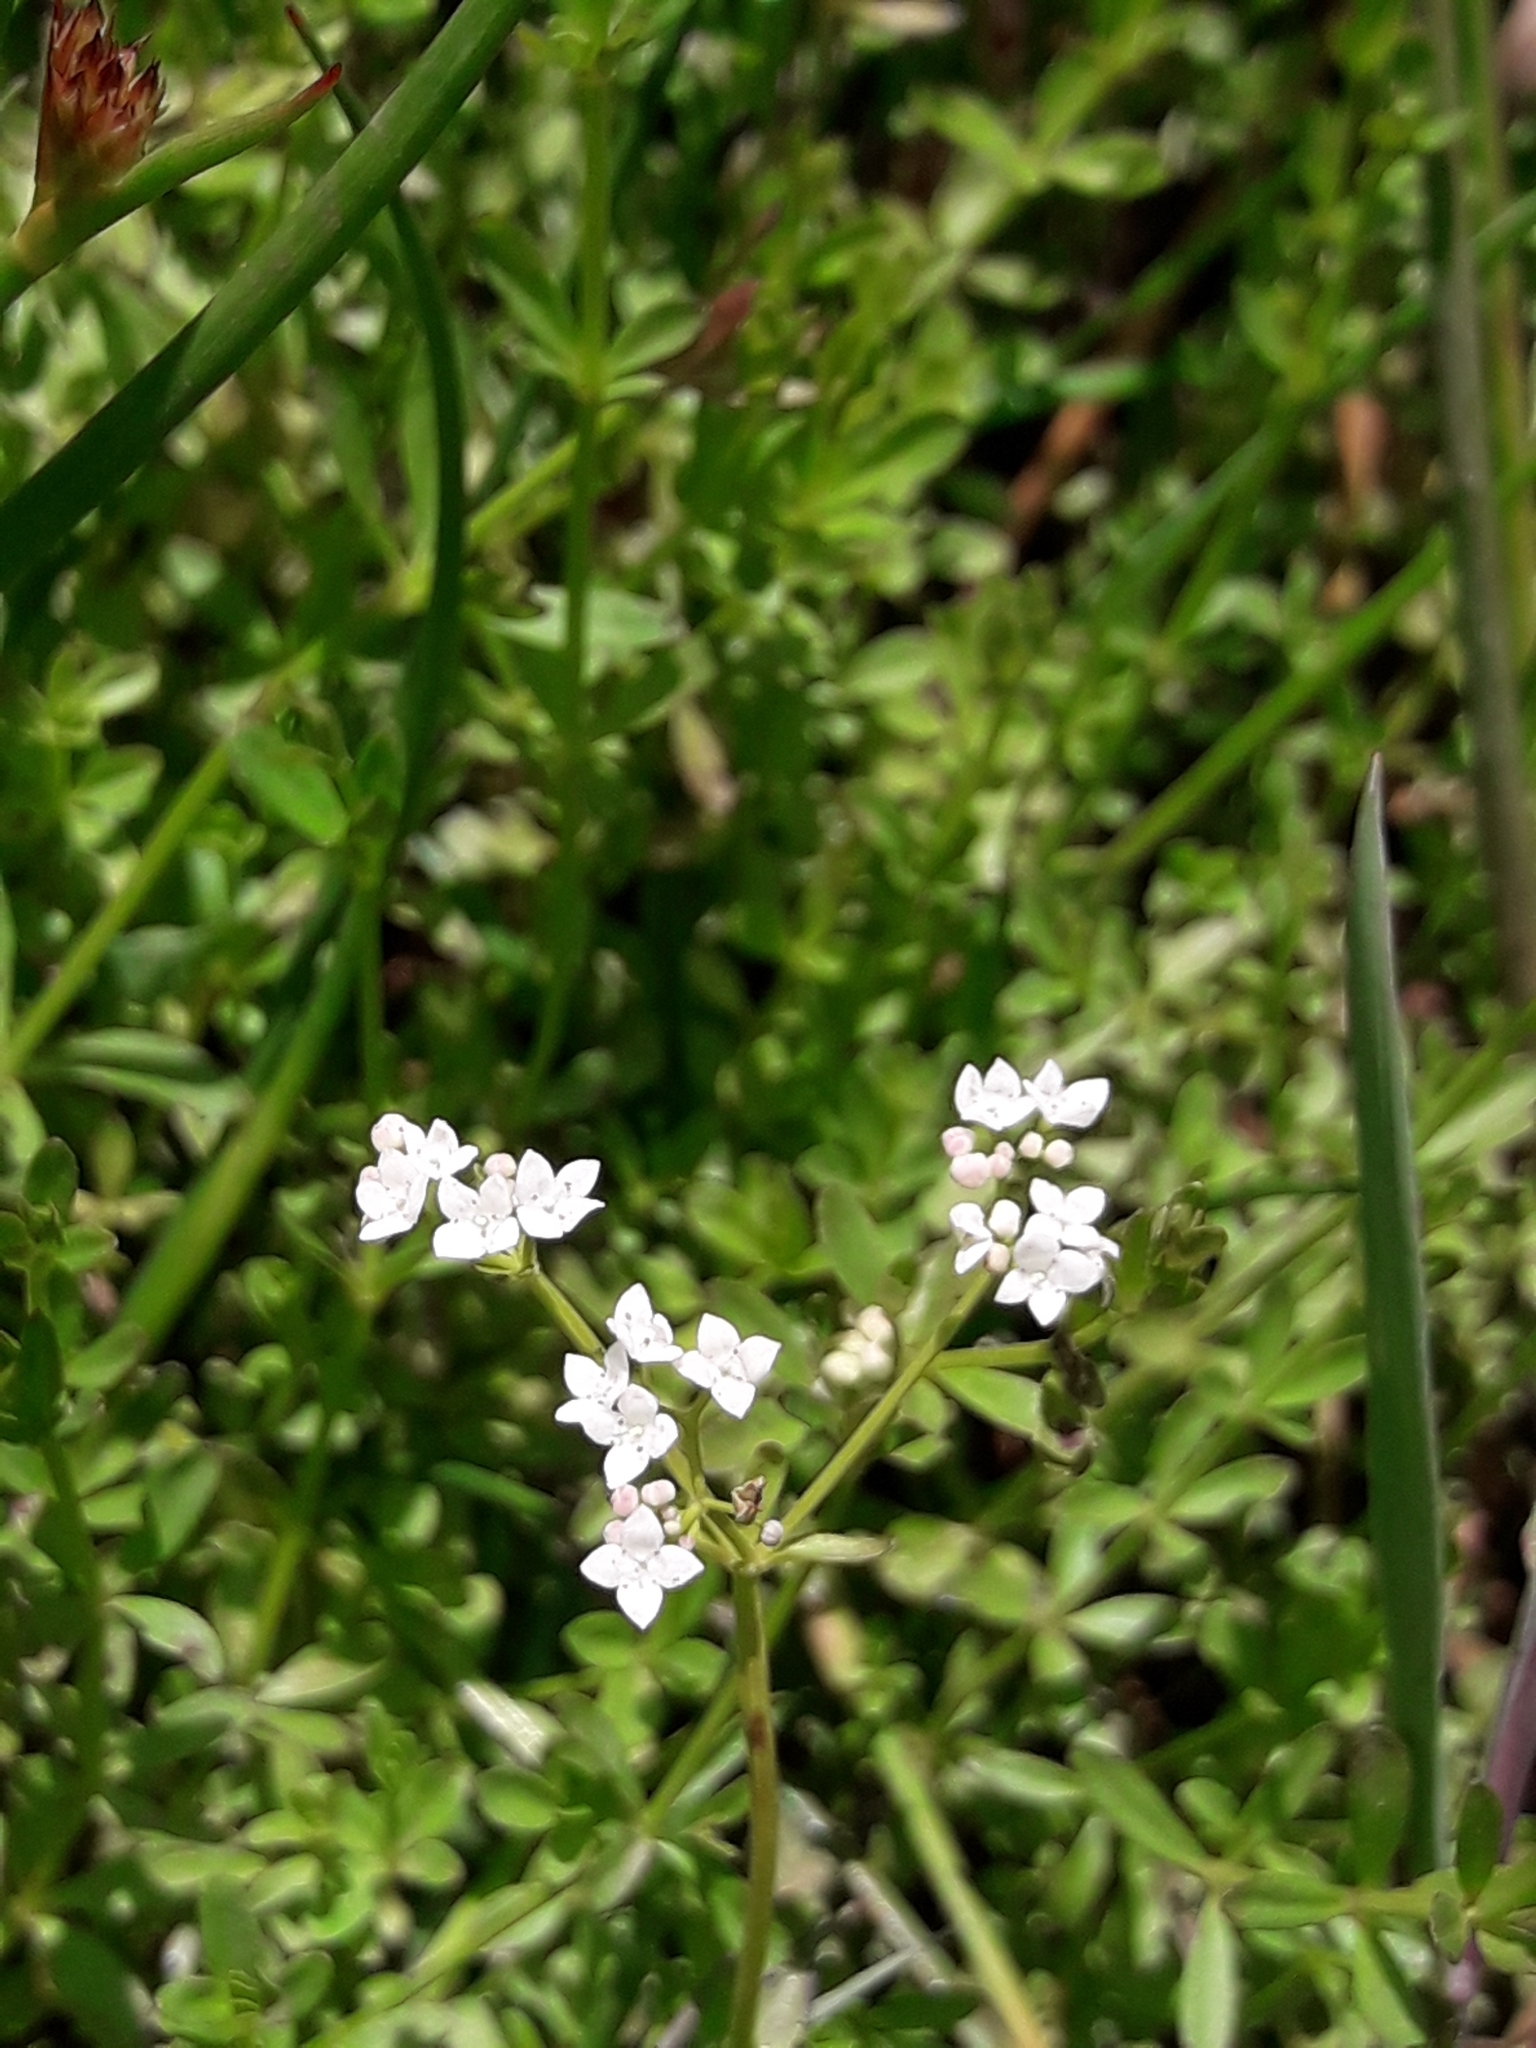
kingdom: Plantae
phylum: Tracheophyta
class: Magnoliopsida
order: Gentianales
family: Rubiaceae
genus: Galium
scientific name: Galium palustre
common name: Common marsh-bedstraw
